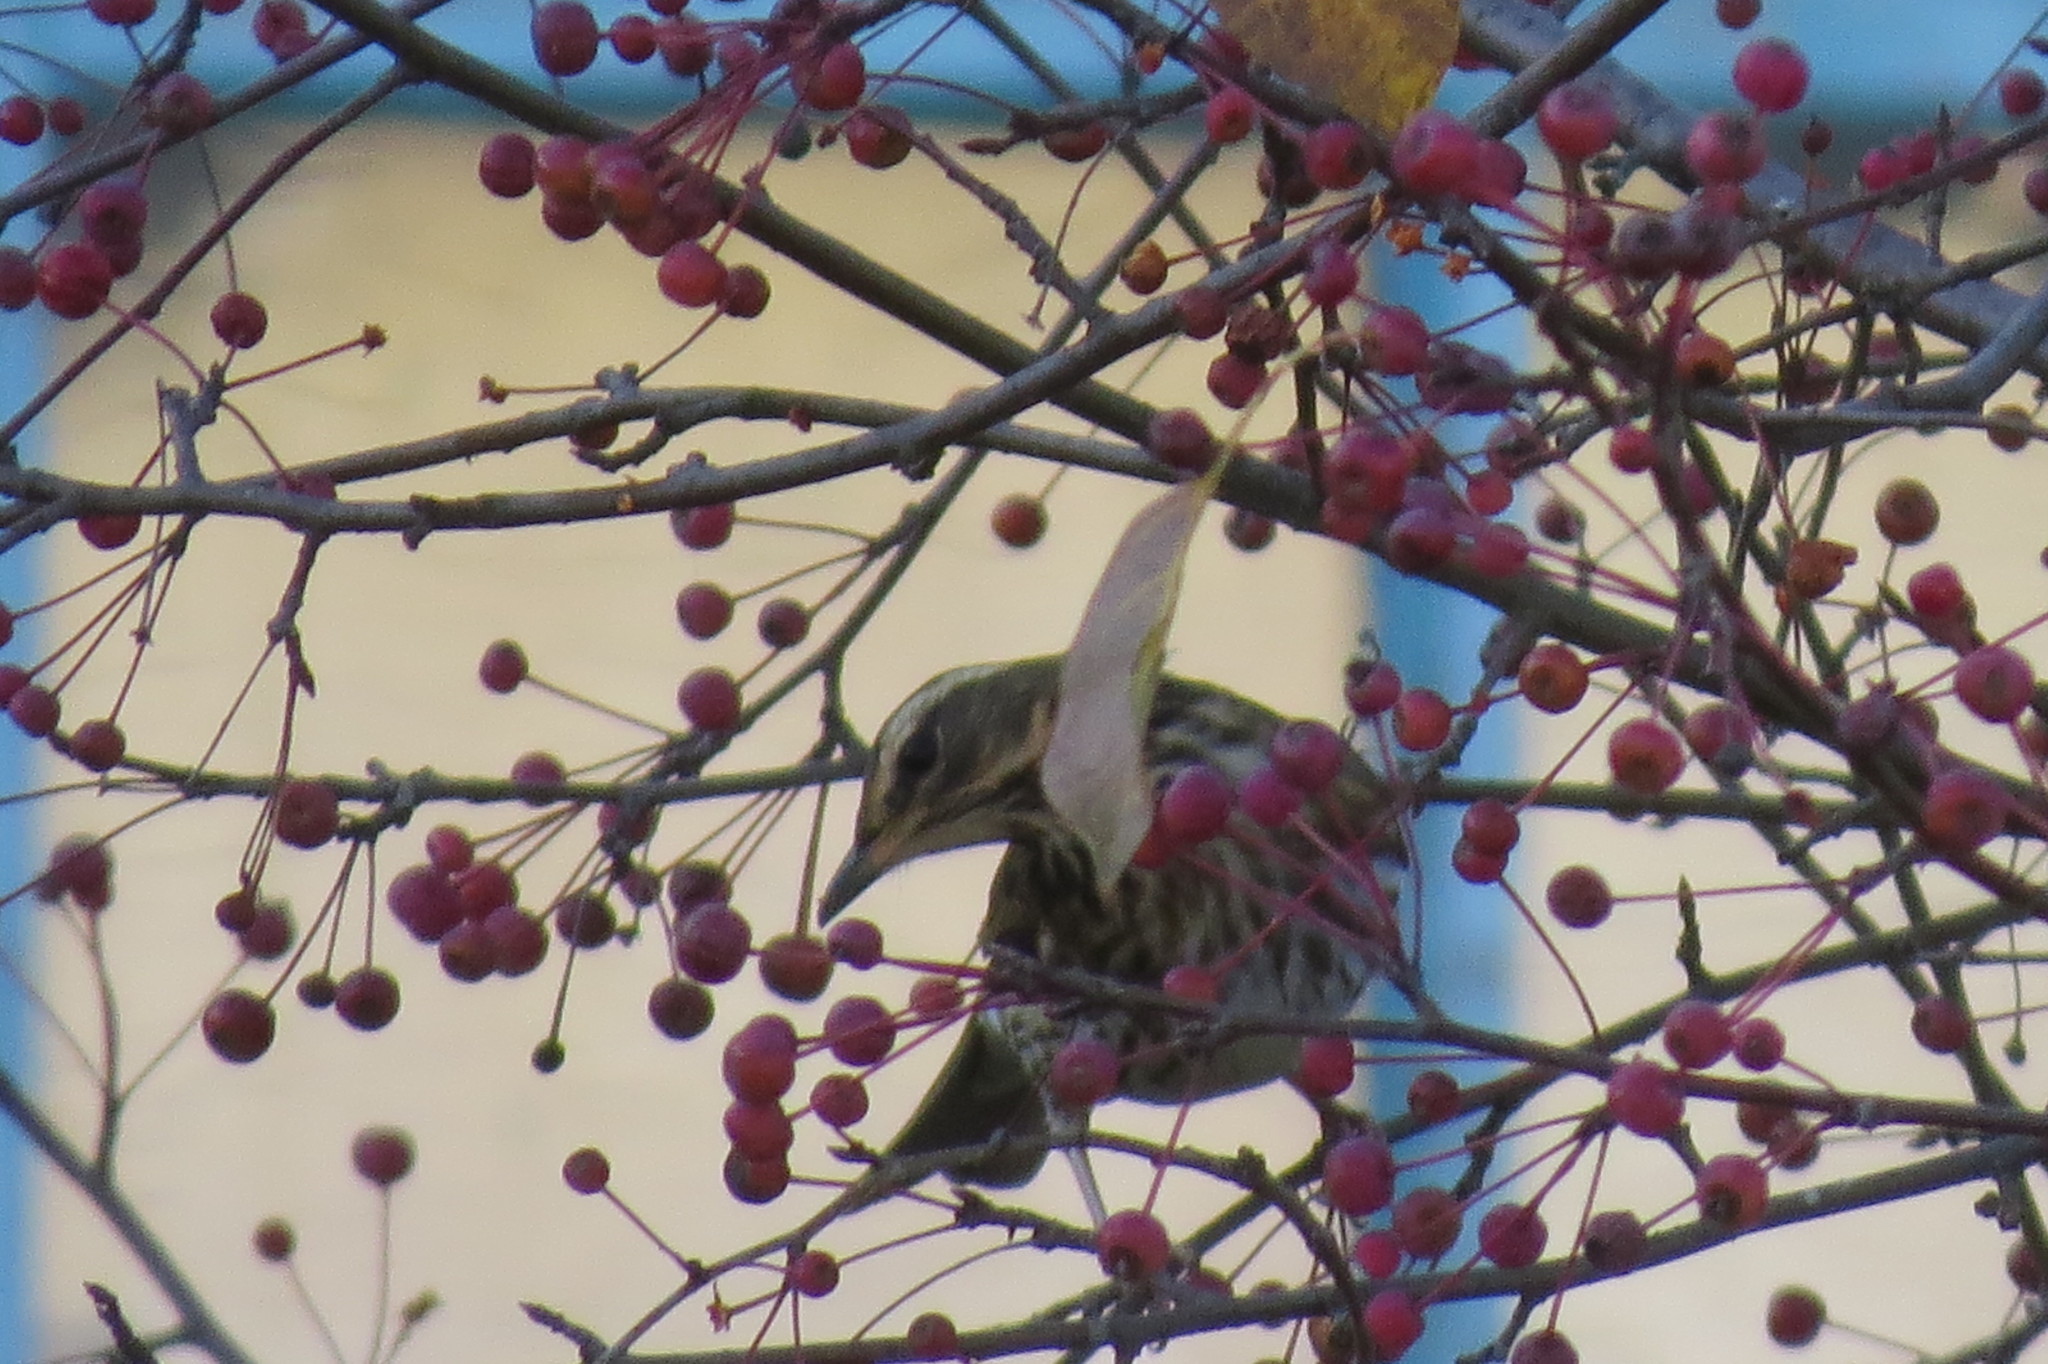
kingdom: Animalia
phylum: Chordata
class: Aves
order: Passeriformes
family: Turdidae
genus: Turdus
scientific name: Turdus iliacus
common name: Redwing
